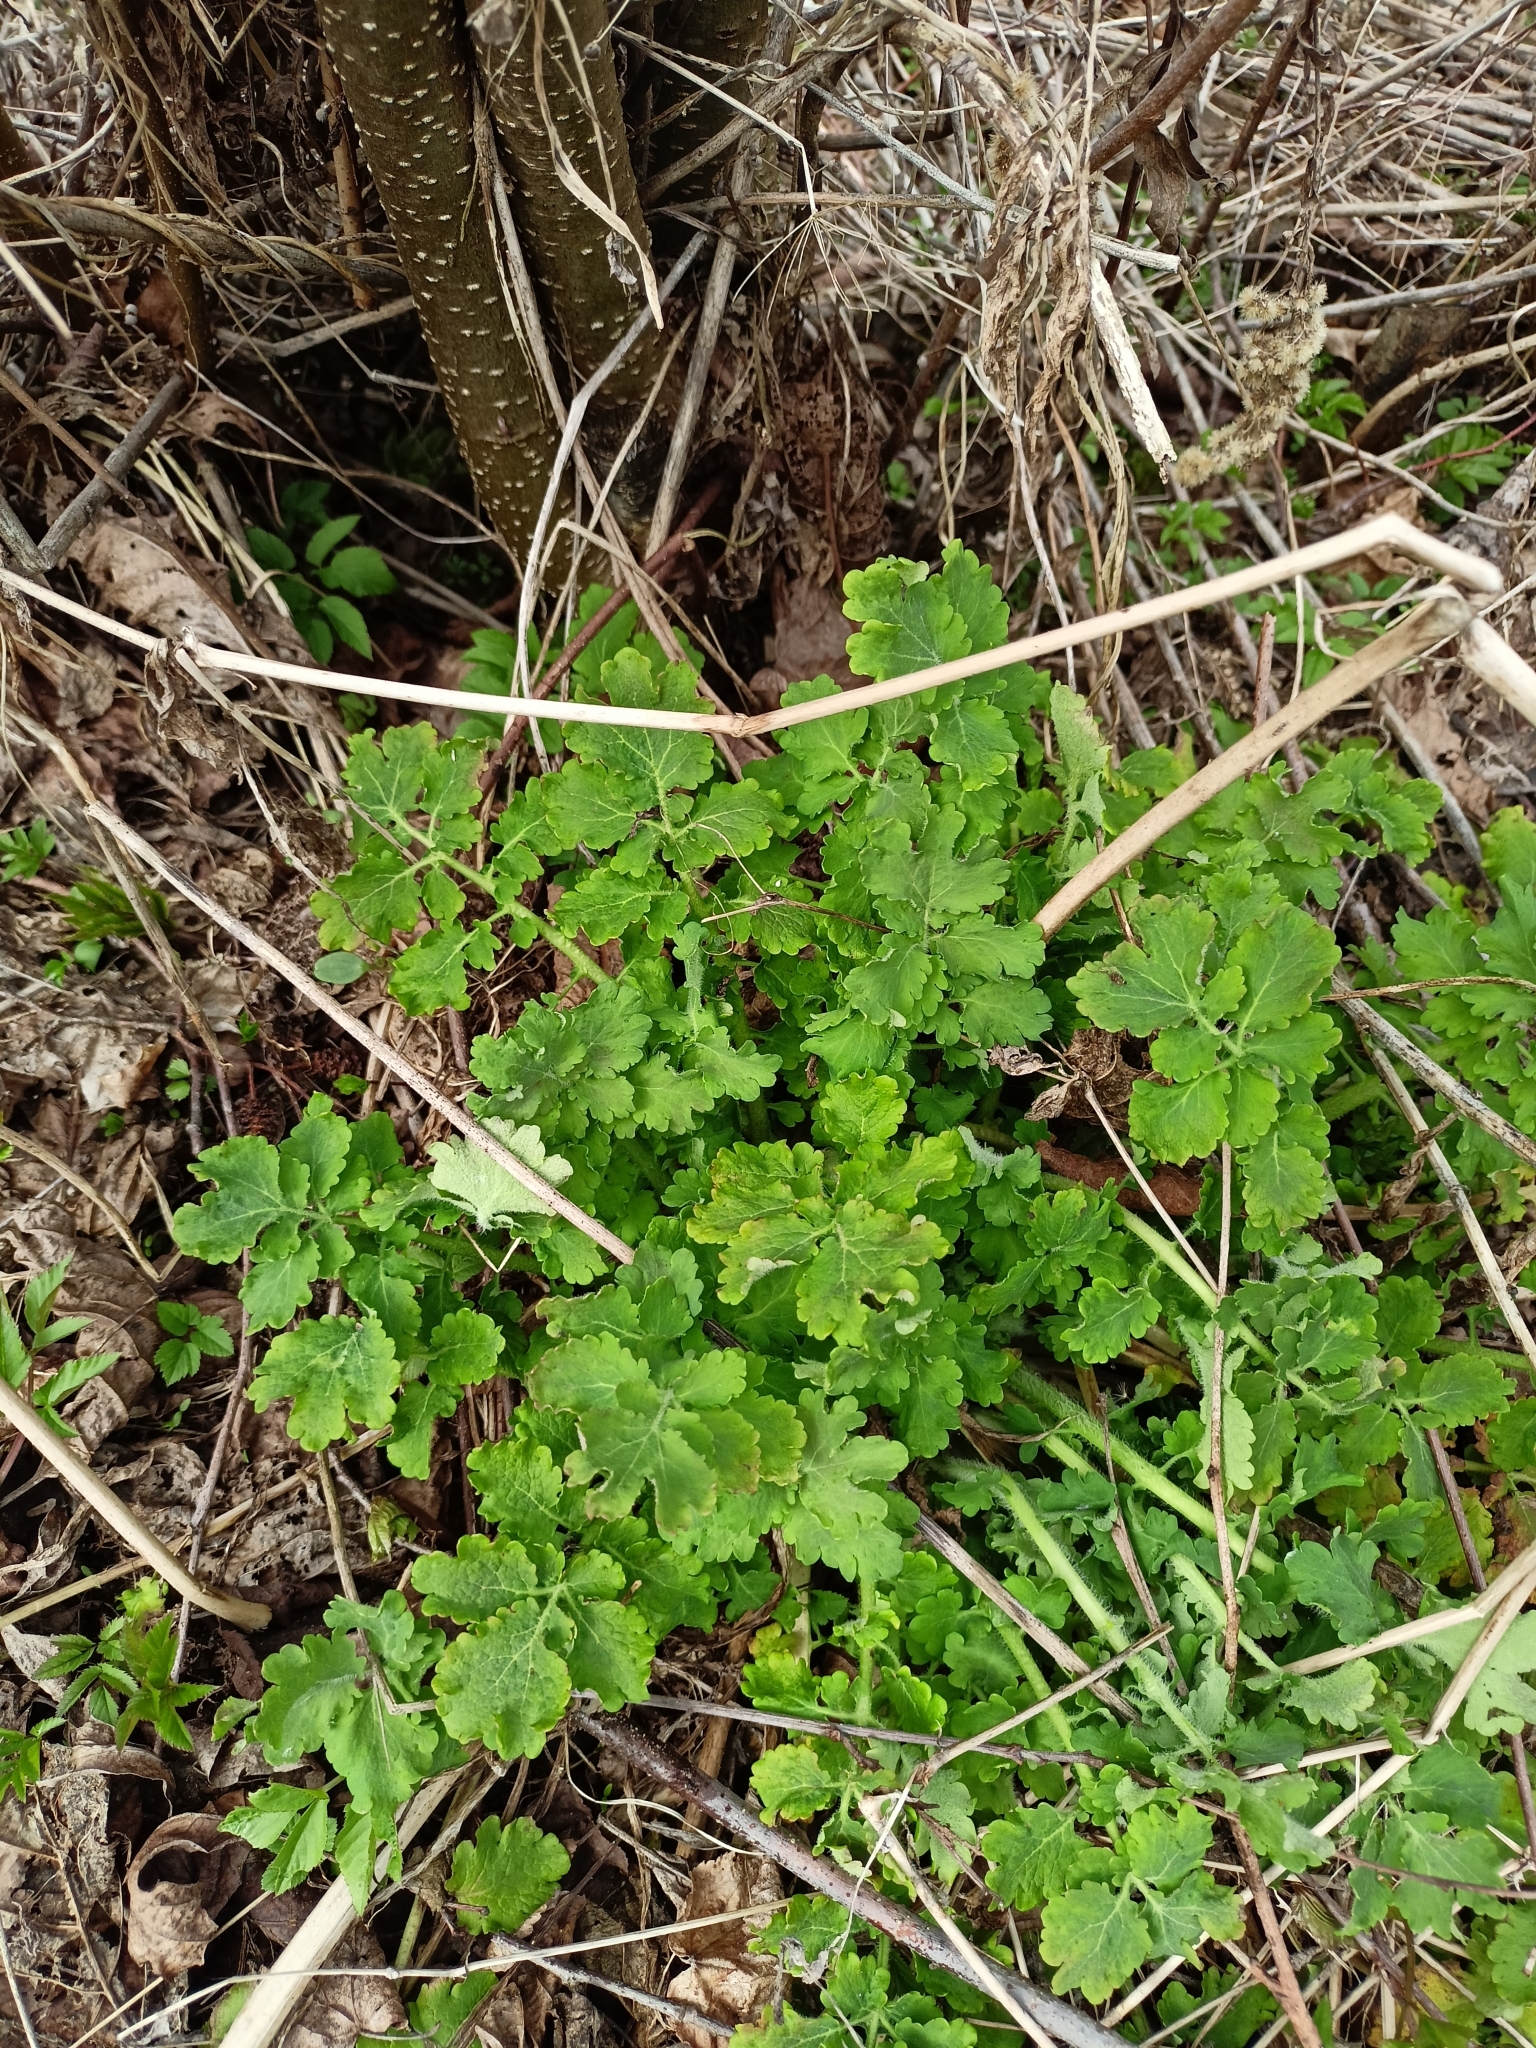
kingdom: Plantae
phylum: Tracheophyta
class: Magnoliopsida
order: Ranunculales
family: Papaveraceae
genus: Chelidonium
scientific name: Chelidonium majus
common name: Greater celandine
